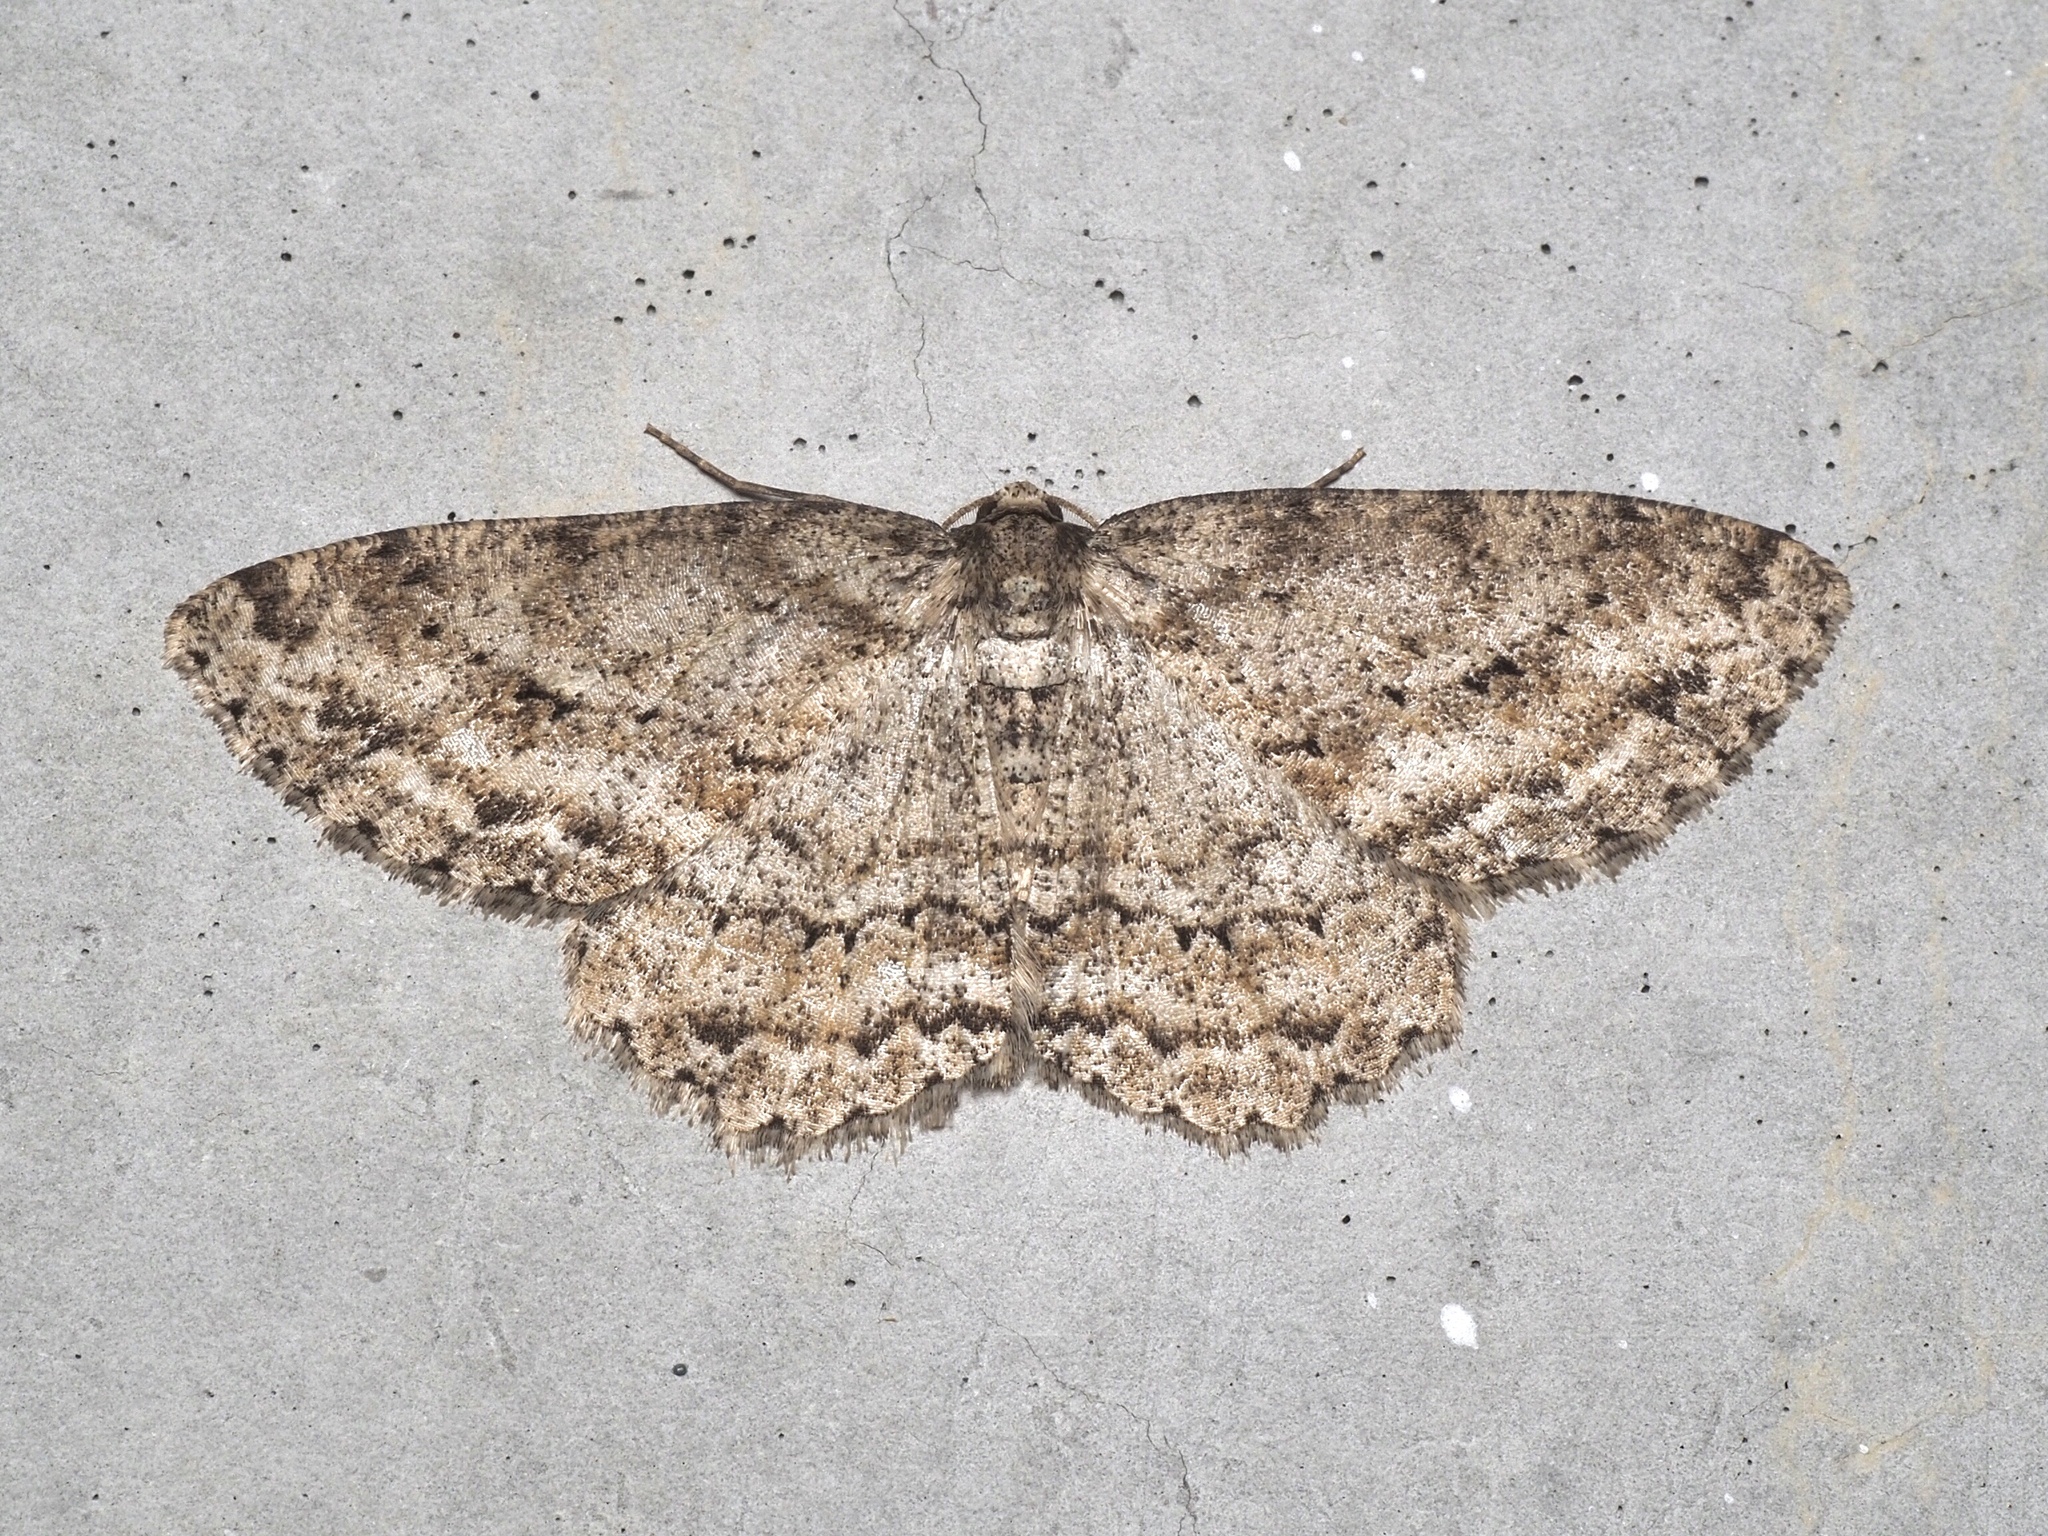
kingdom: Animalia
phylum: Arthropoda
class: Insecta
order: Lepidoptera
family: Geometridae
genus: Ectropis
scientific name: Ectropis crepuscularia
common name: Engrailed
